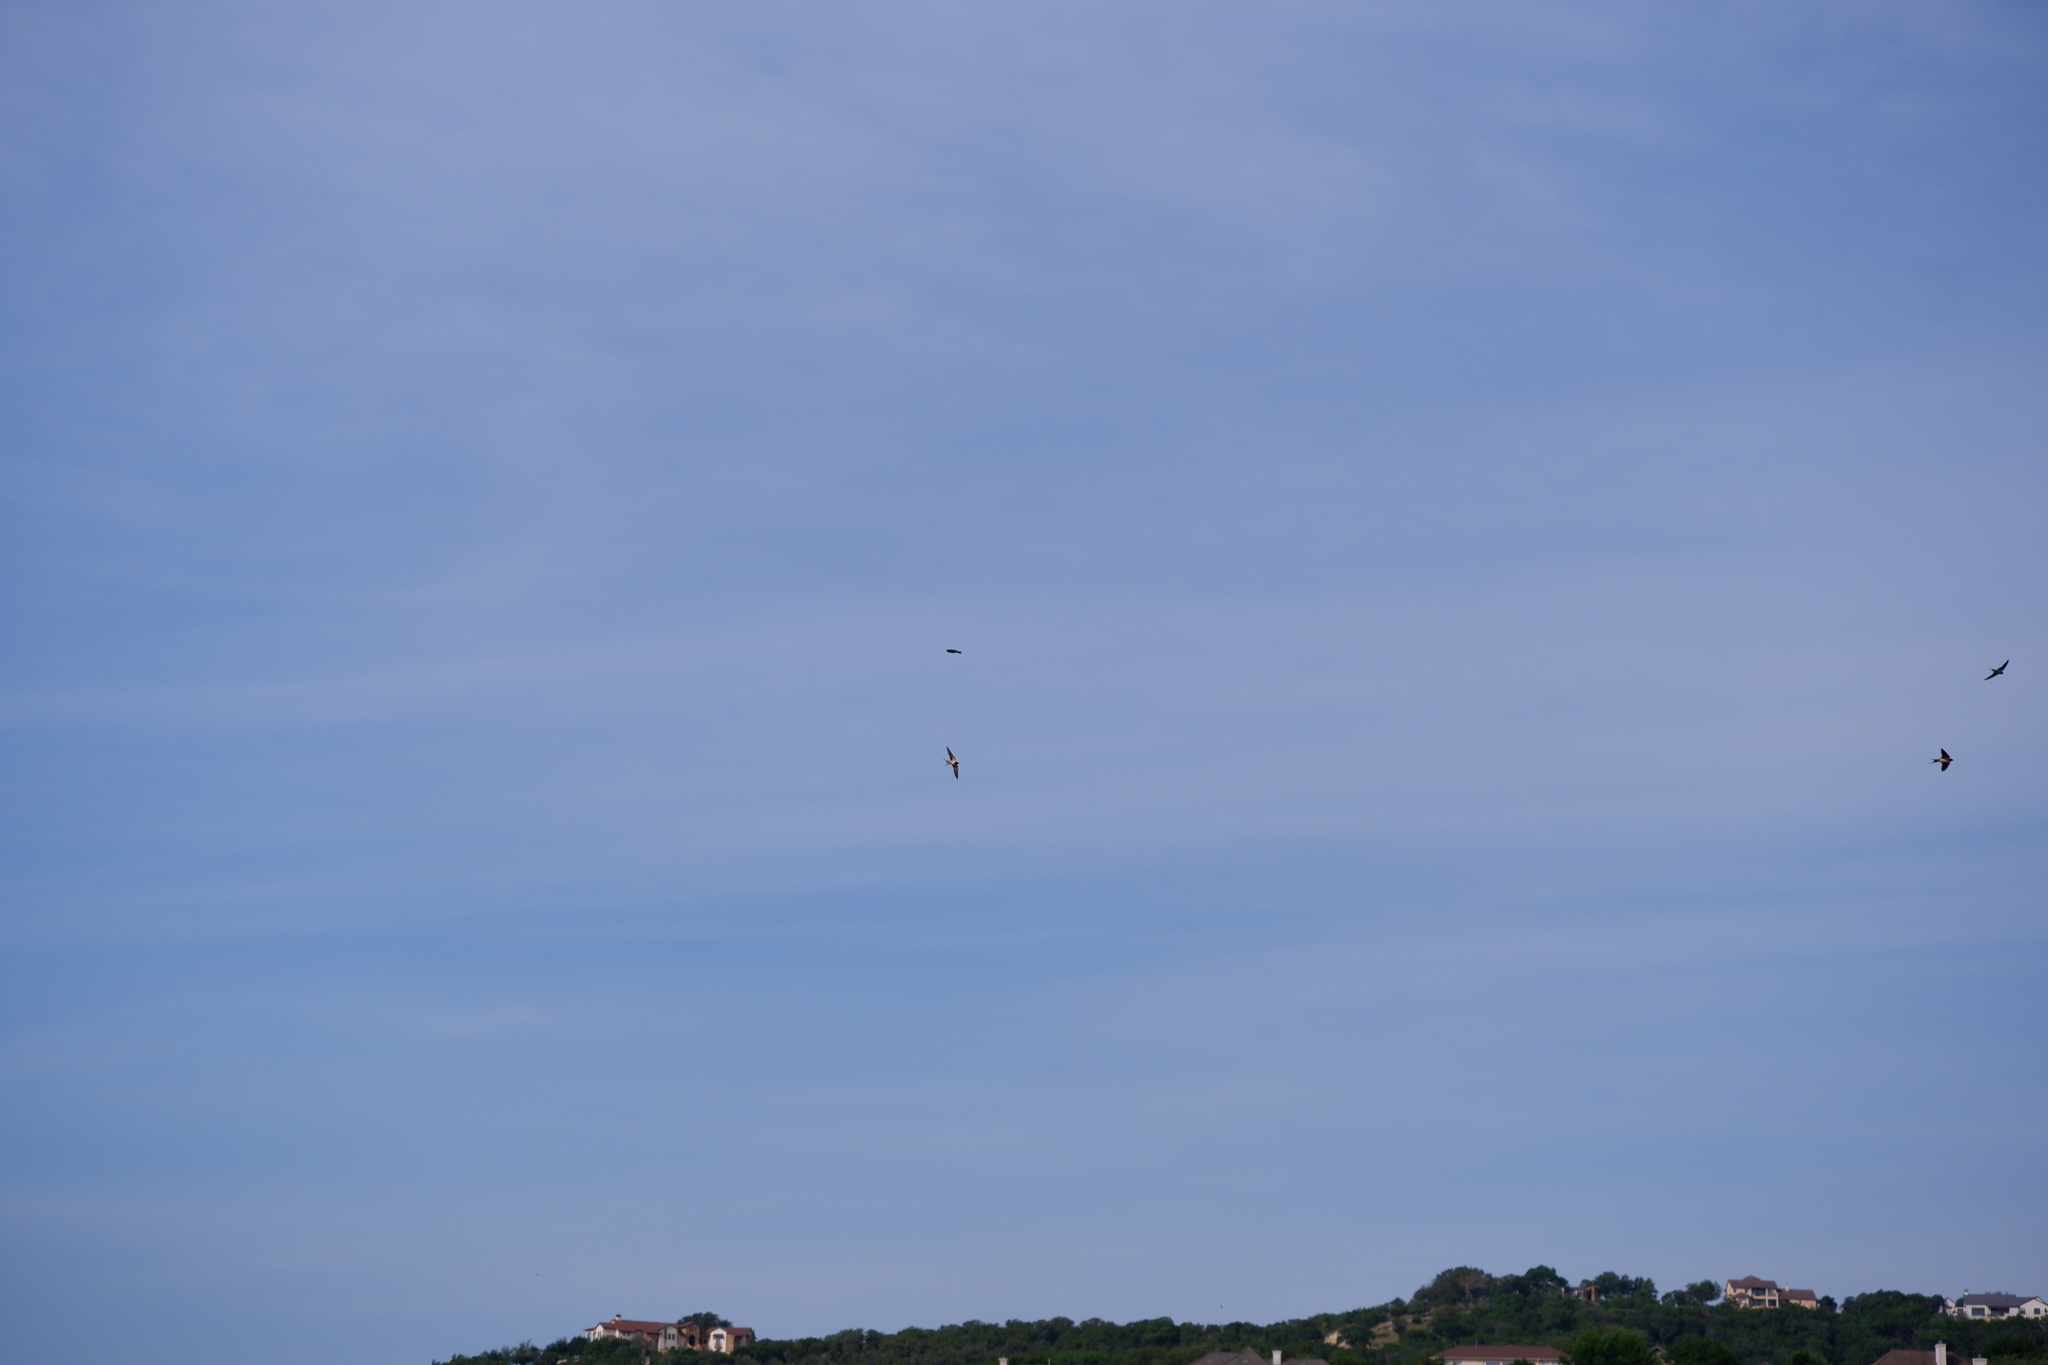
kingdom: Animalia
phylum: Chordata
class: Aves
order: Passeriformes
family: Hirundinidae
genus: Hirundo
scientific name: Hirundo rustica
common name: Barn swallow
